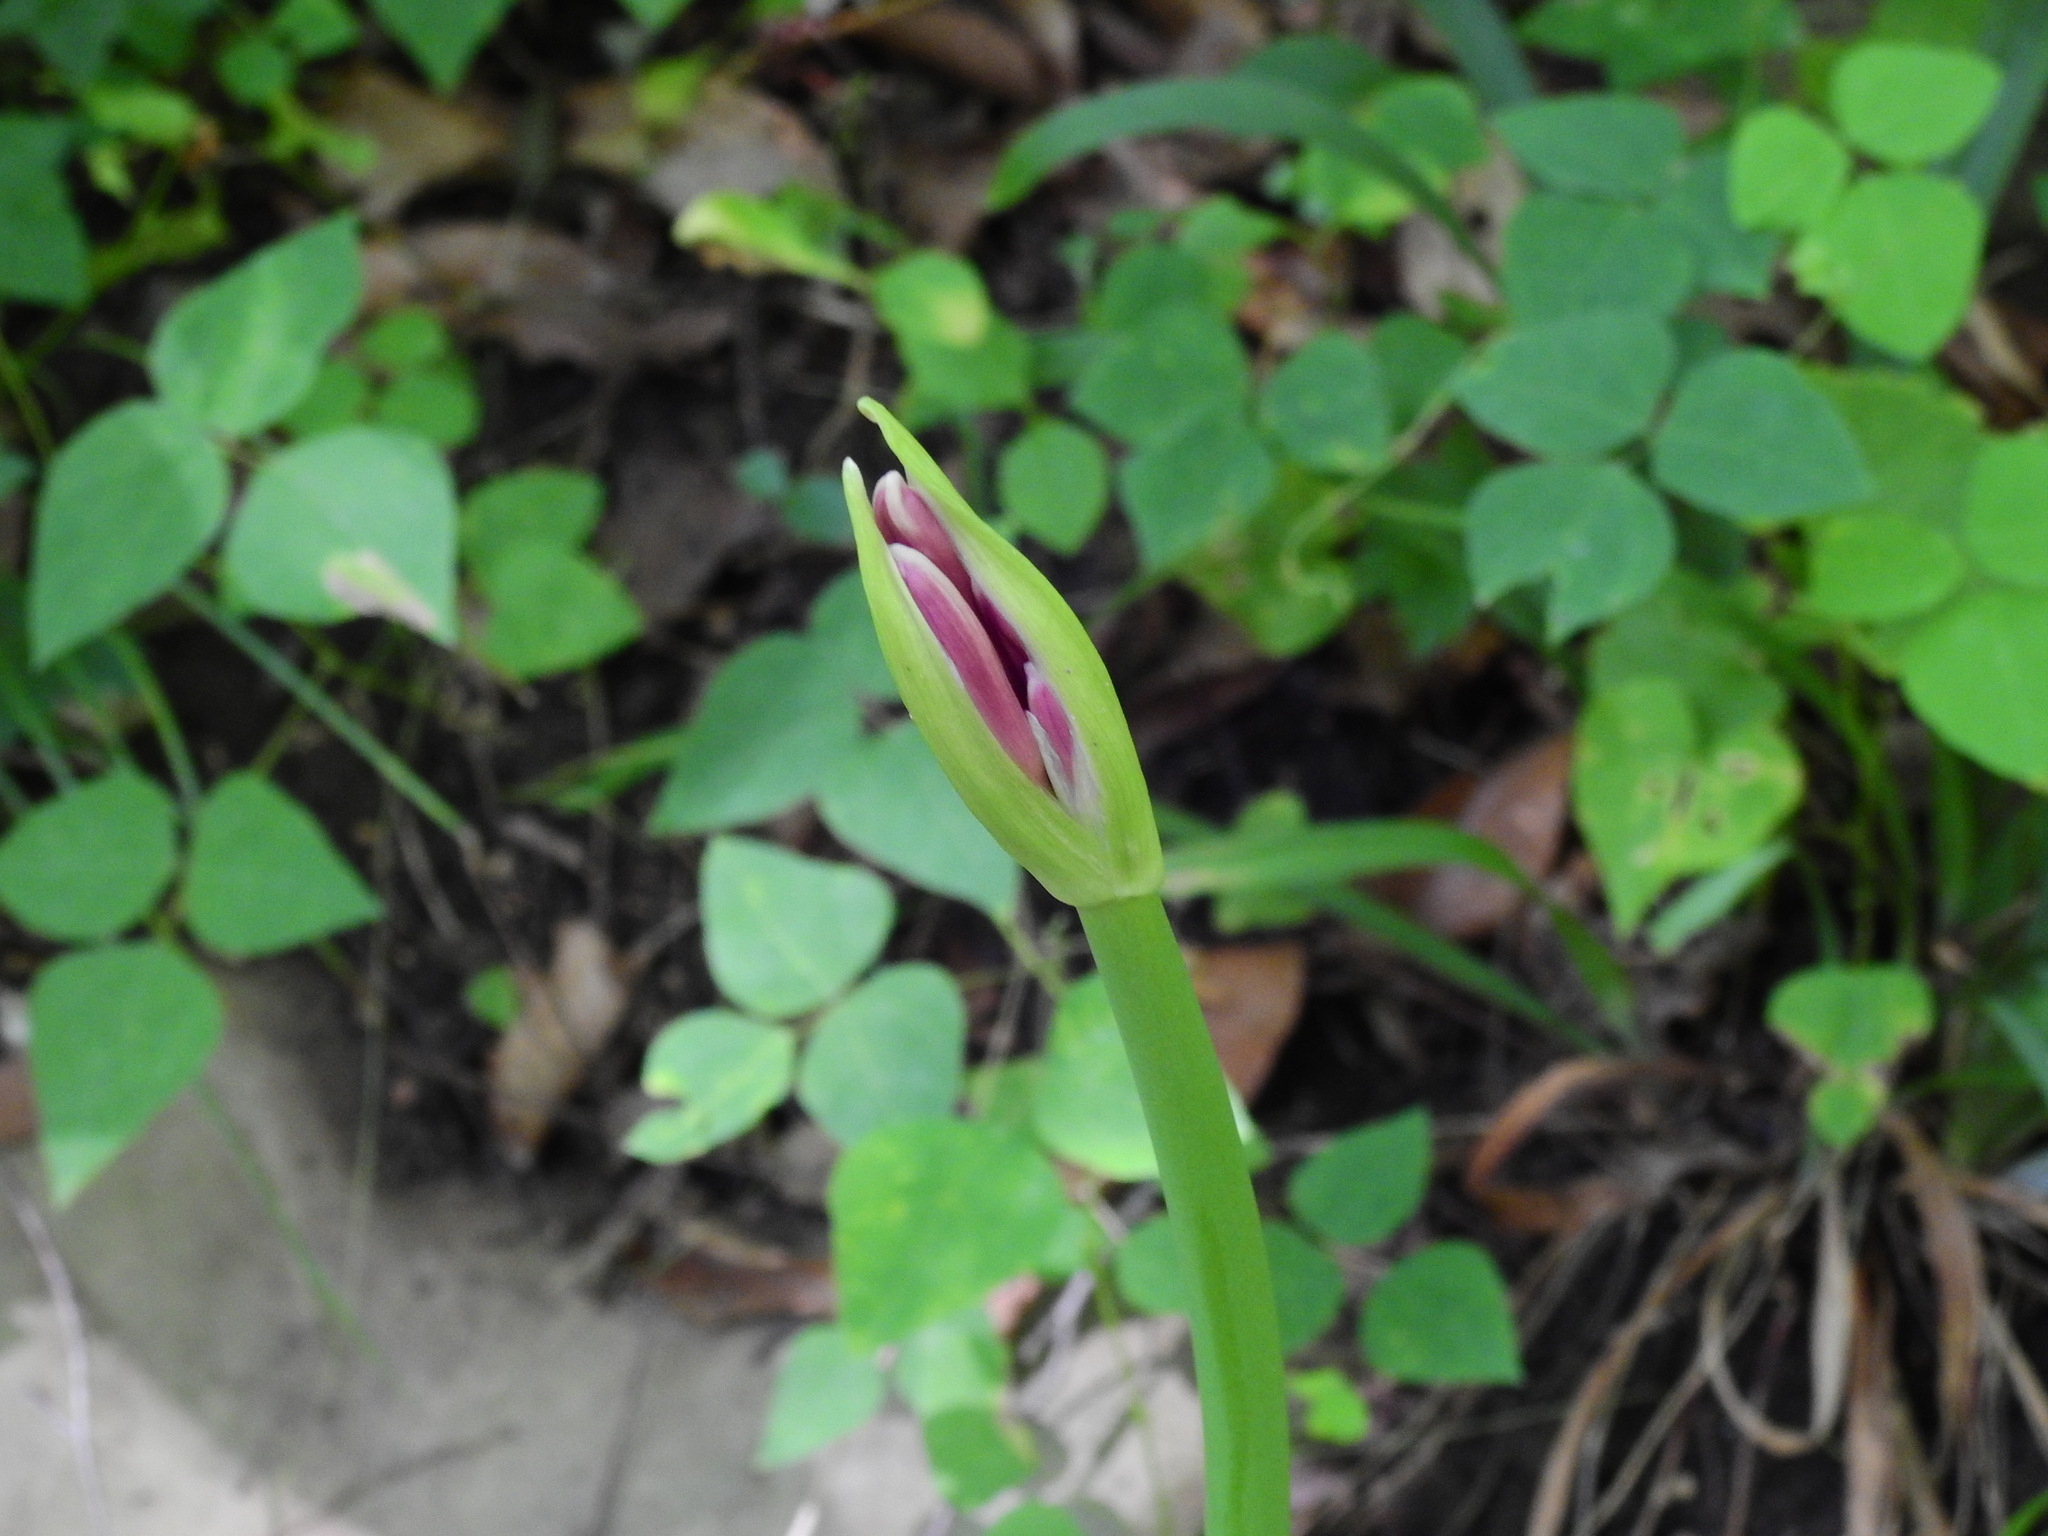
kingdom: Plantae
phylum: Tracheophyta
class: Liliopsida
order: Asparagales
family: Amaryllidaceae
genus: Lycoris
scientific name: Lycoris squamigera
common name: Magic-lily
